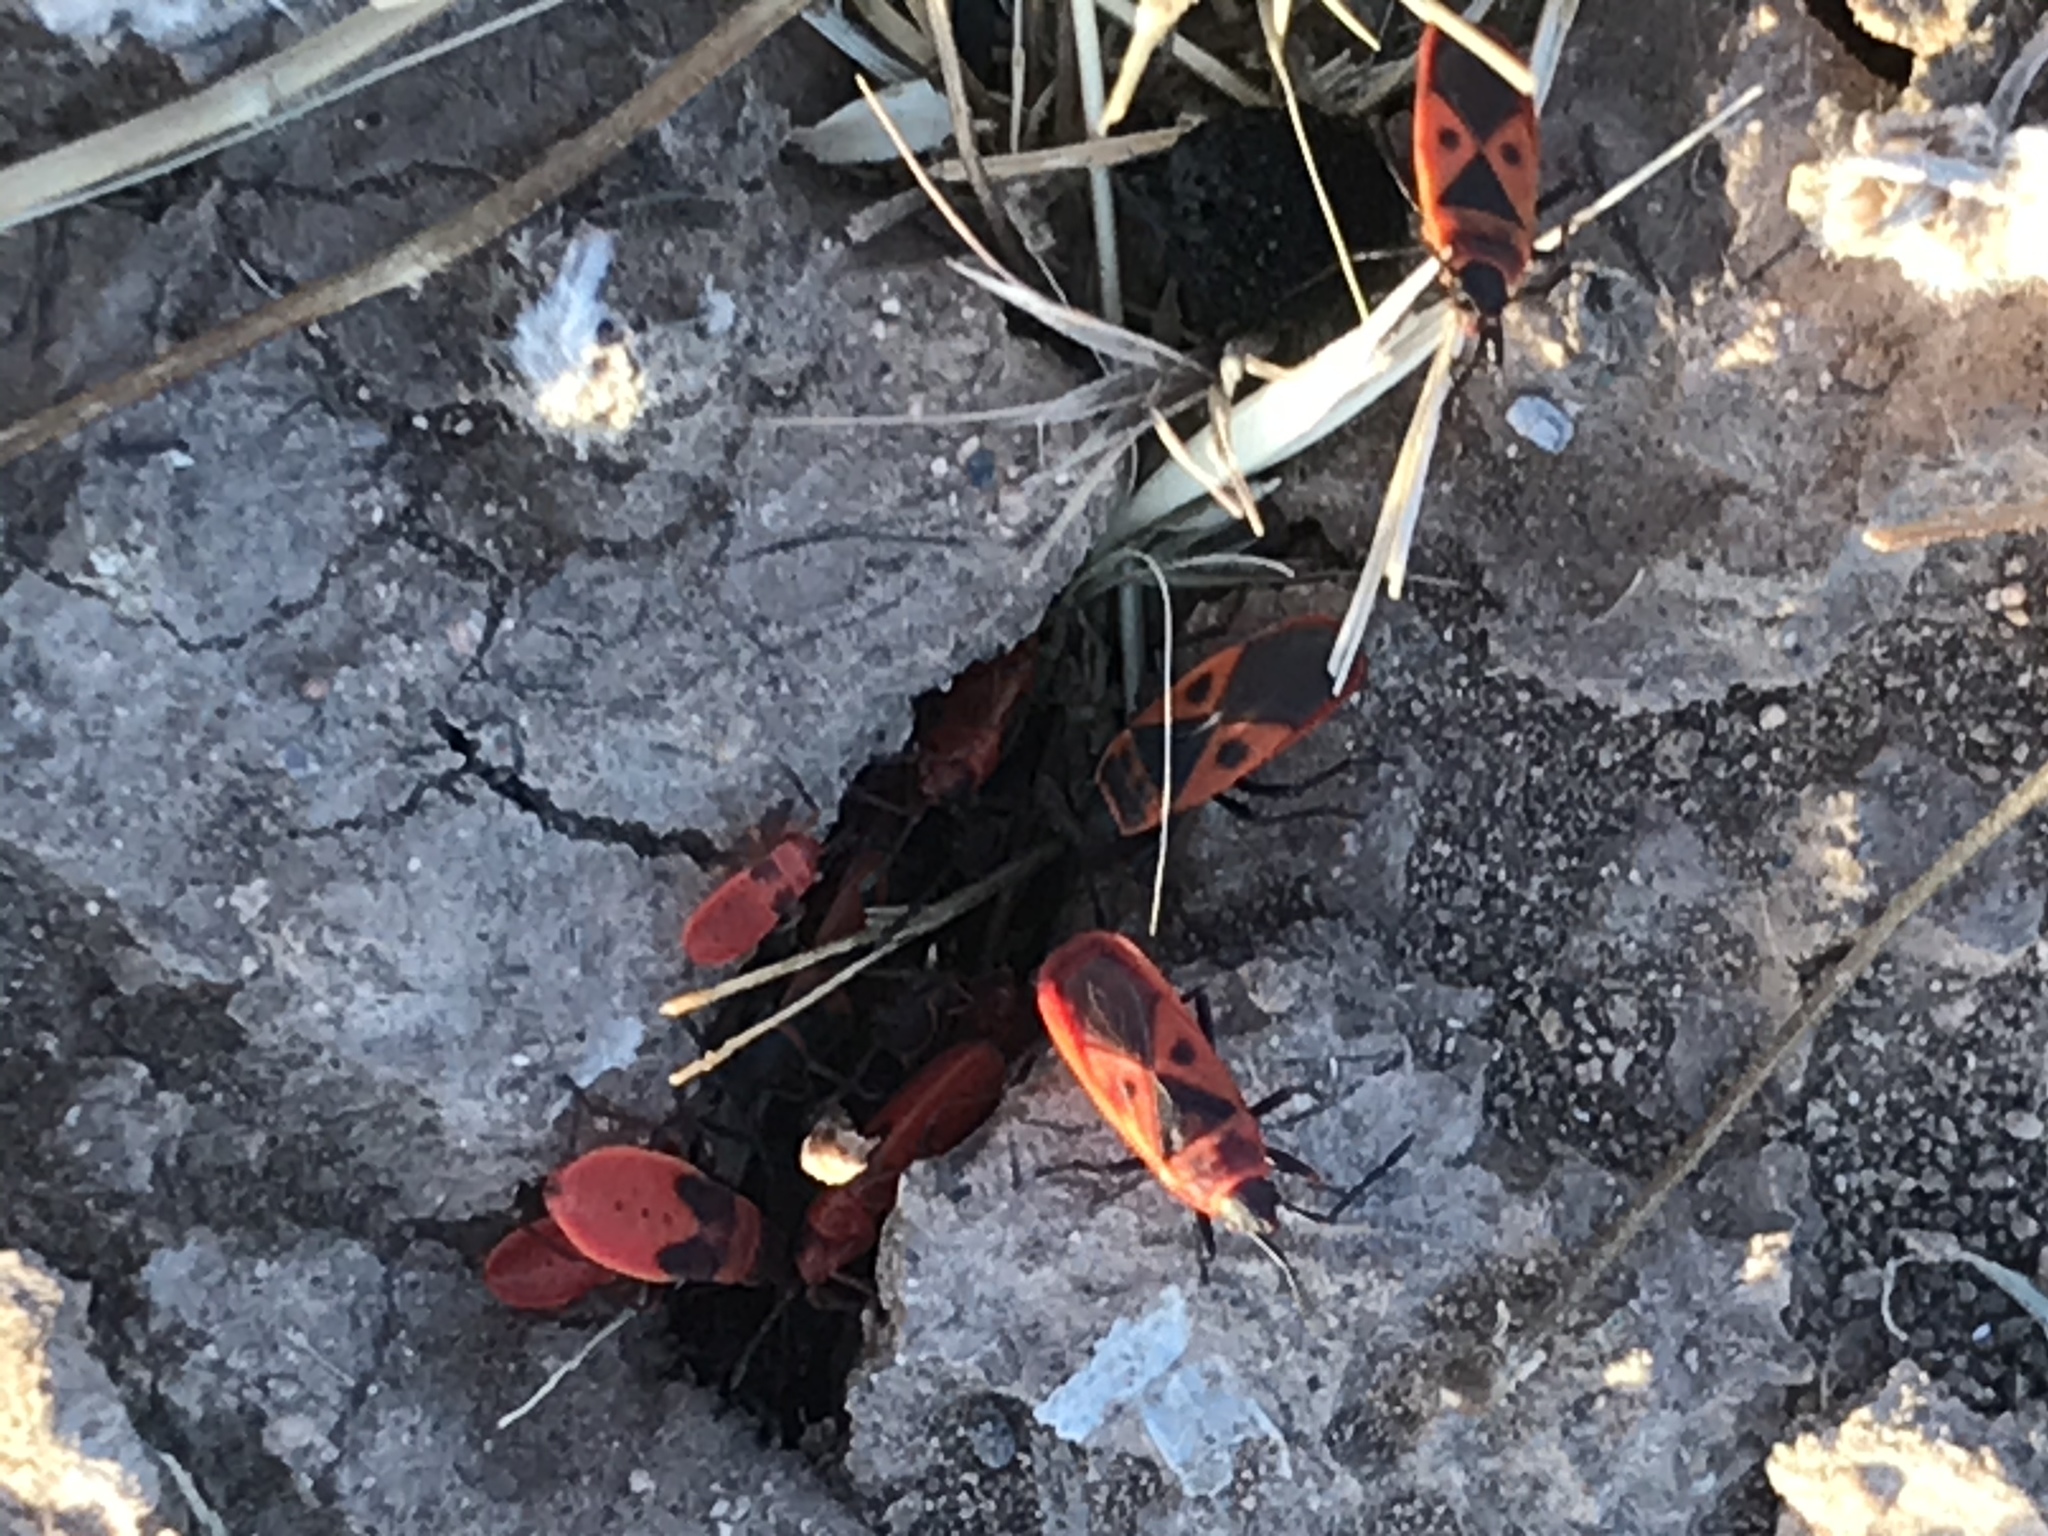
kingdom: Animalia
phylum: Arthropoda
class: Insecta
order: Hemiptera
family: Pyrrhocoridae
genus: Scantius
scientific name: Scantius aegyptius
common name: Red bug
